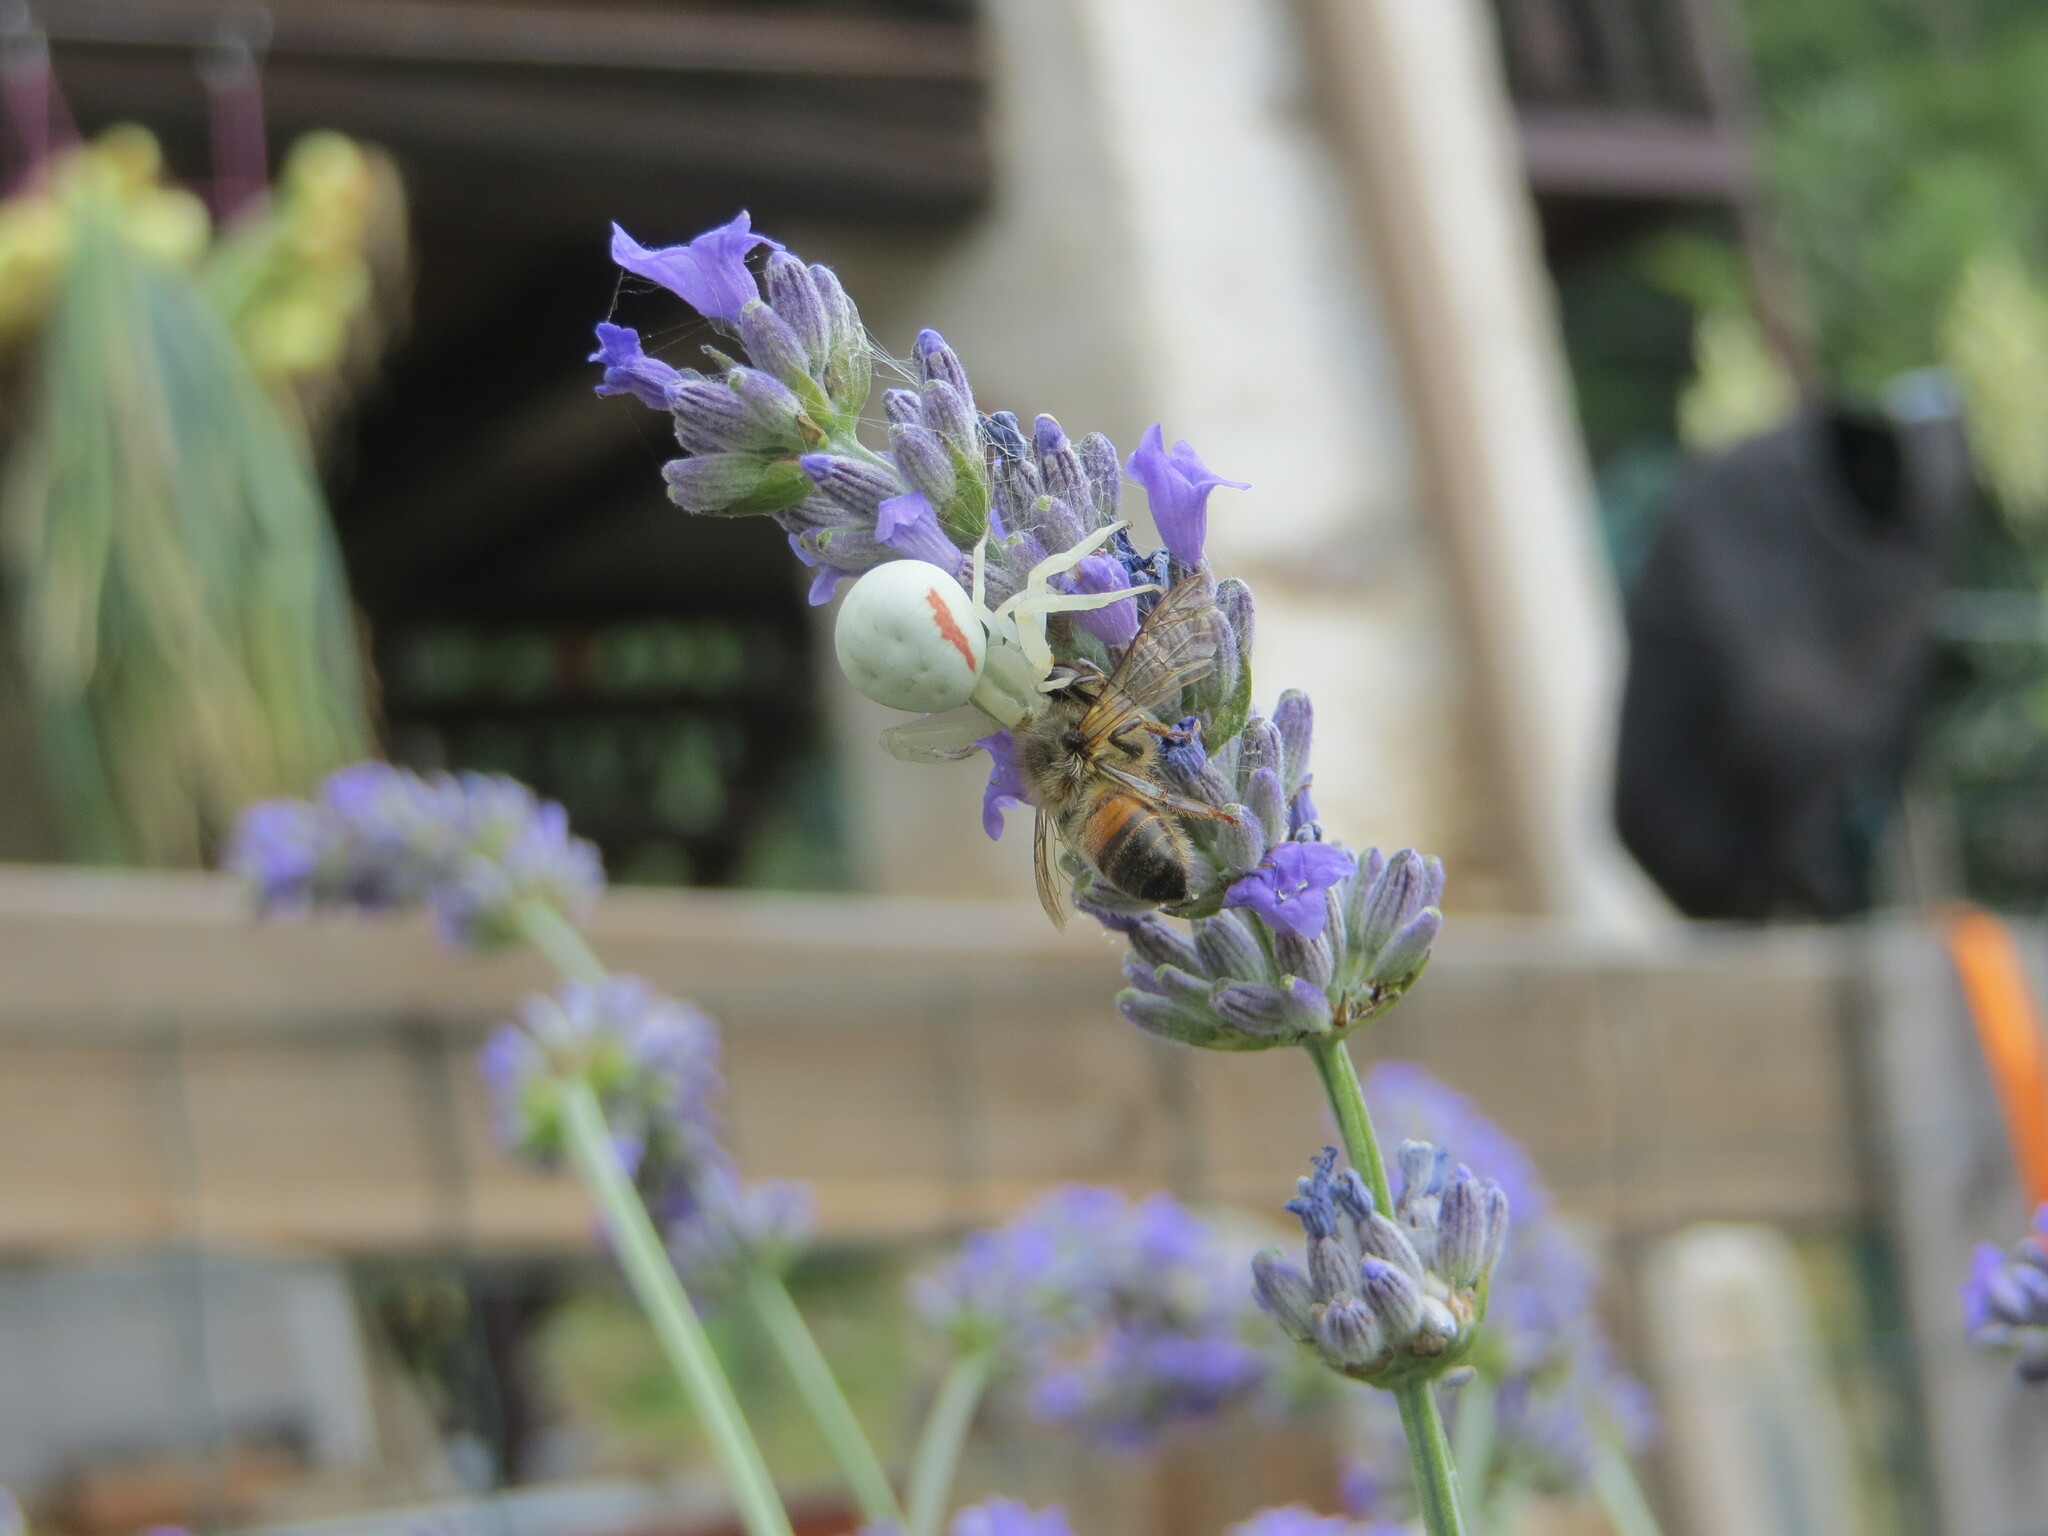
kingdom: Animalia
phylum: Arthropoda
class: Arachnida
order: Araneae
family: Thomisidae
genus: Misumena
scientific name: Misumena vatia
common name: Goldenrod crab spider
